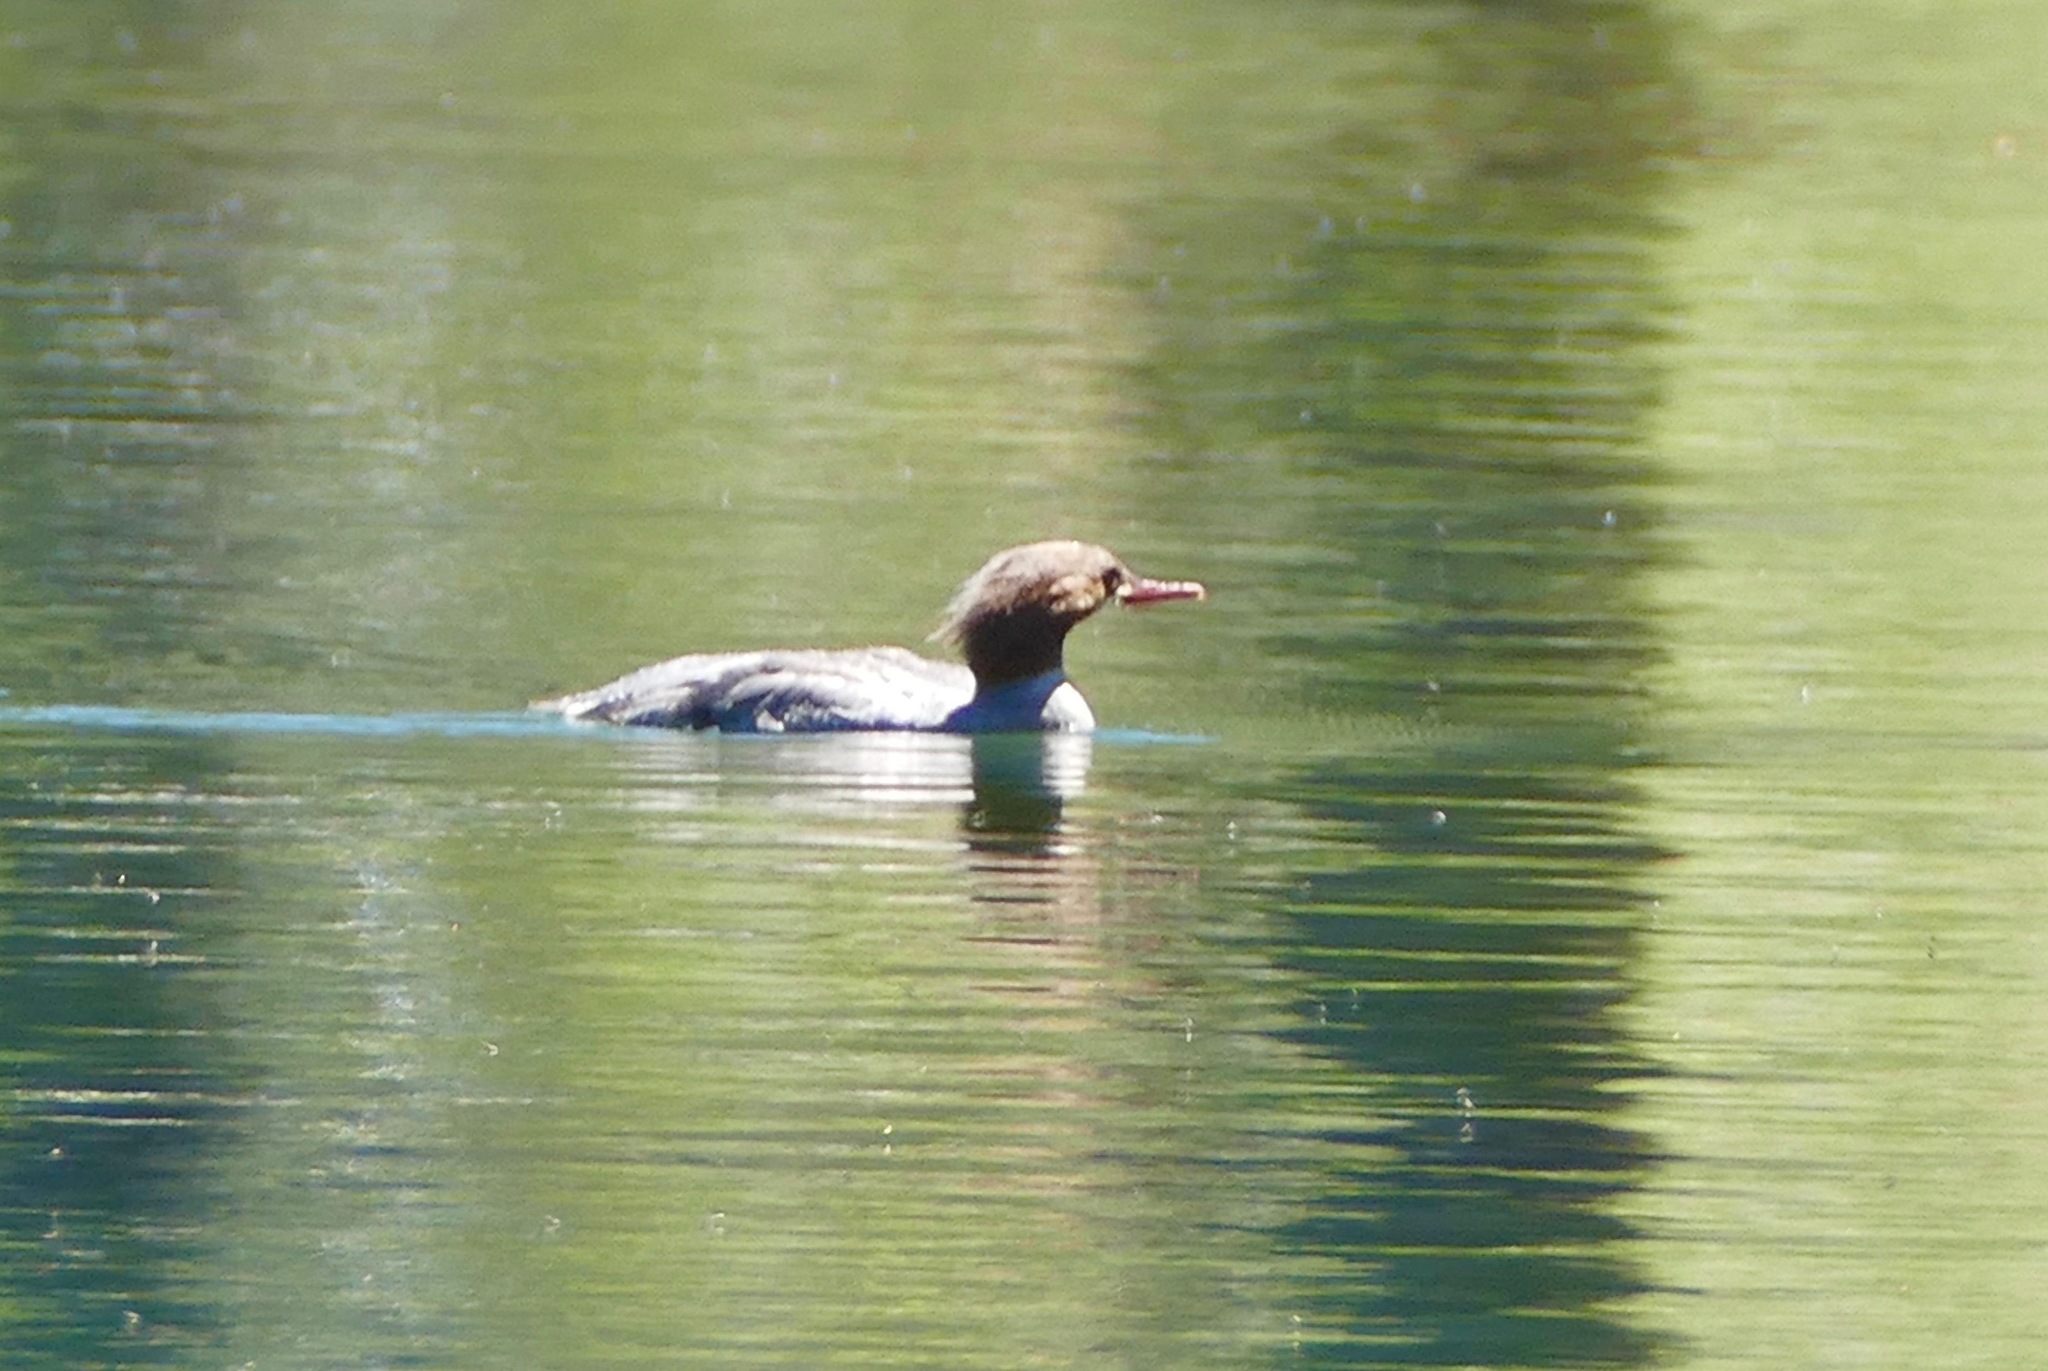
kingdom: Animalia
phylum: Chordata
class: Aves
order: Anseriformes
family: Anatidae
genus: Mergus
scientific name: Mergus merganser
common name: Common merganser
